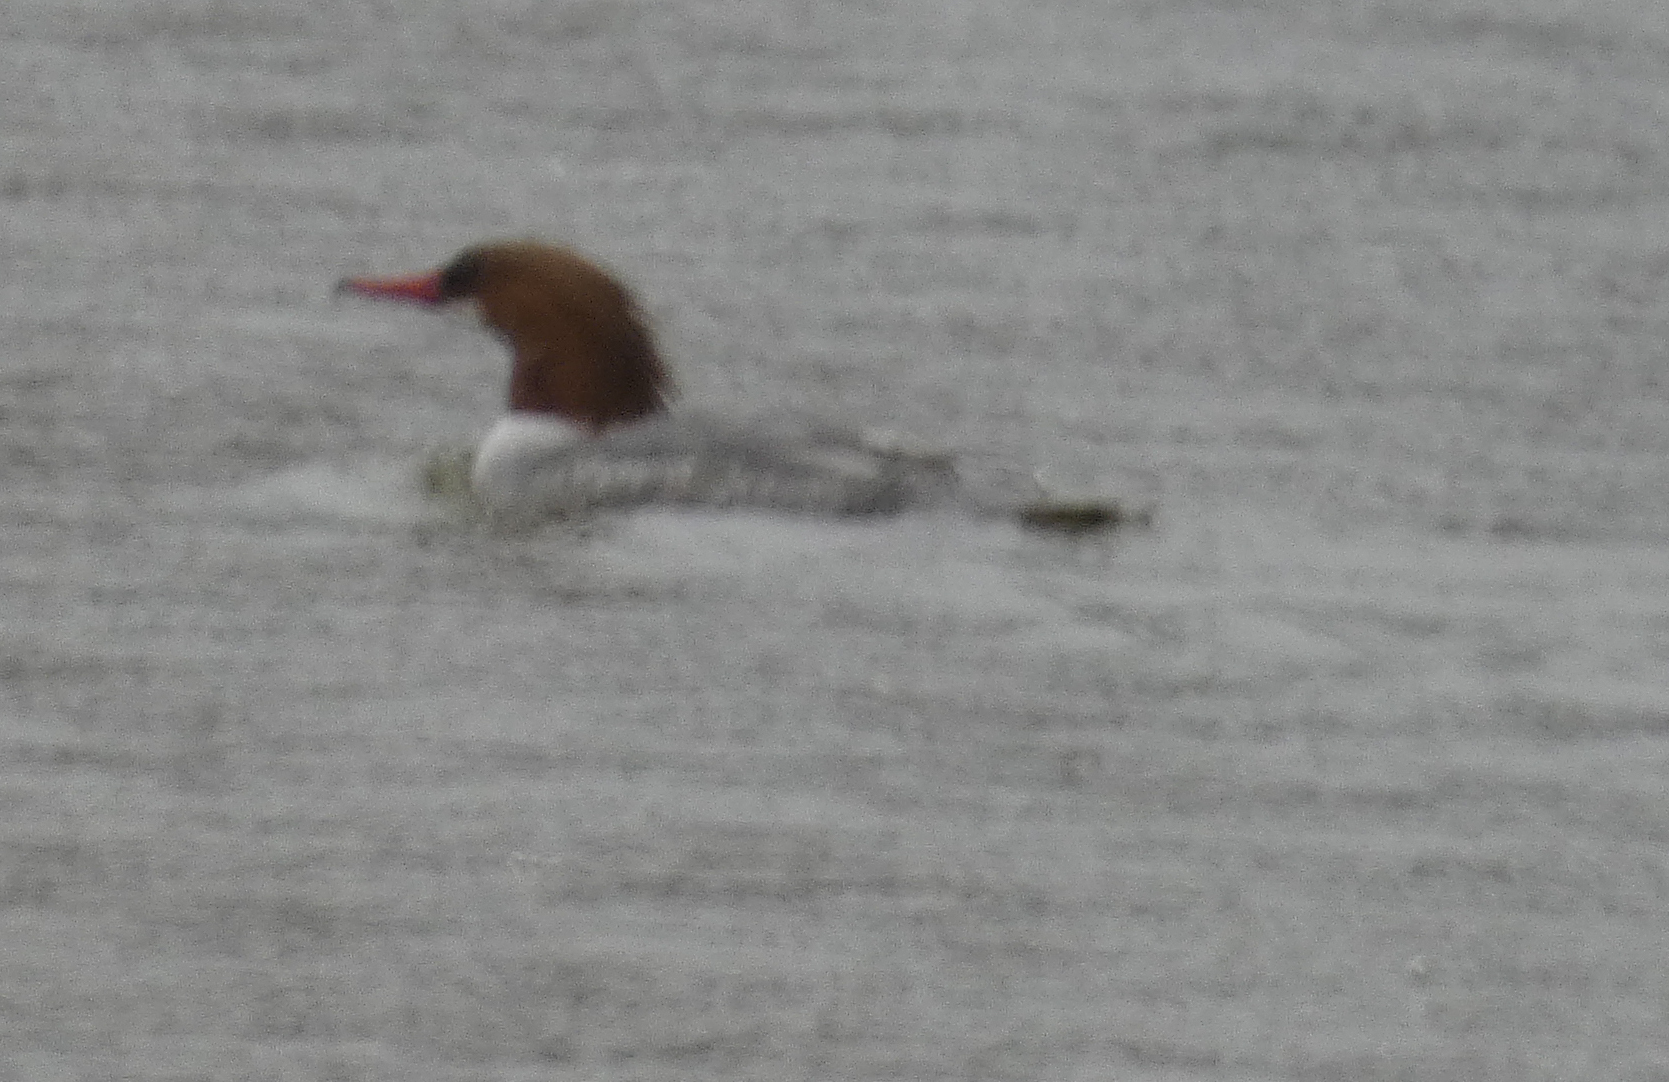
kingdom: Animalia
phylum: Chordata
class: Aves
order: Anseriformes
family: Anatidae
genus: Mergus
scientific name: Mergus merganser
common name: Common merganser
